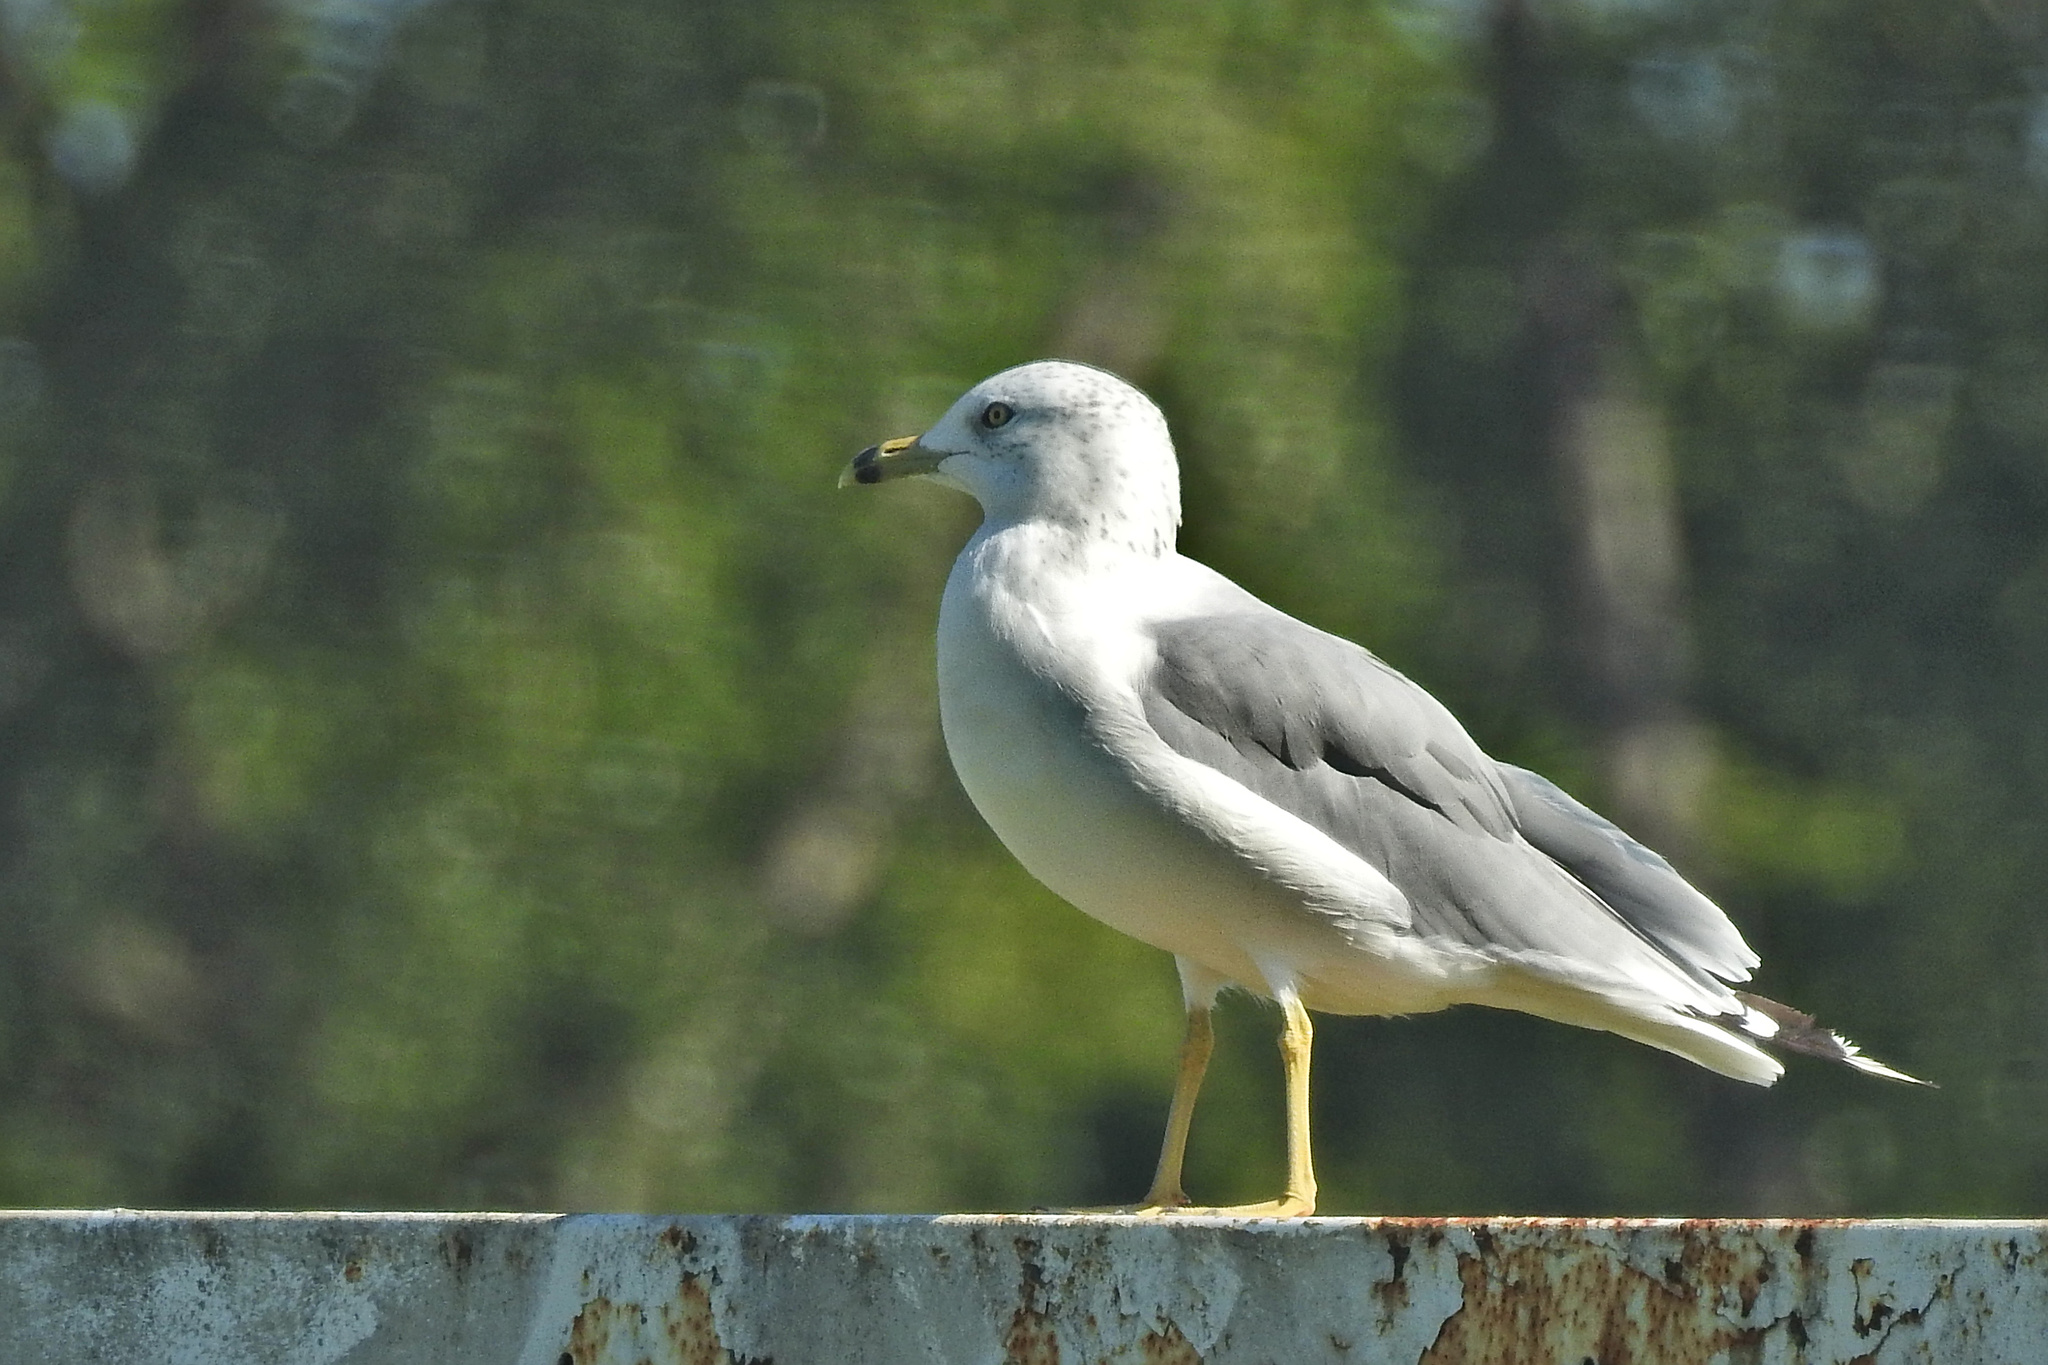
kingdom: Animalia
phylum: Chordata
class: Aves
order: Charadriiformes
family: Laridae
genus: Larus
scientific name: Larus delawarensis
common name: Ring-billed gull
